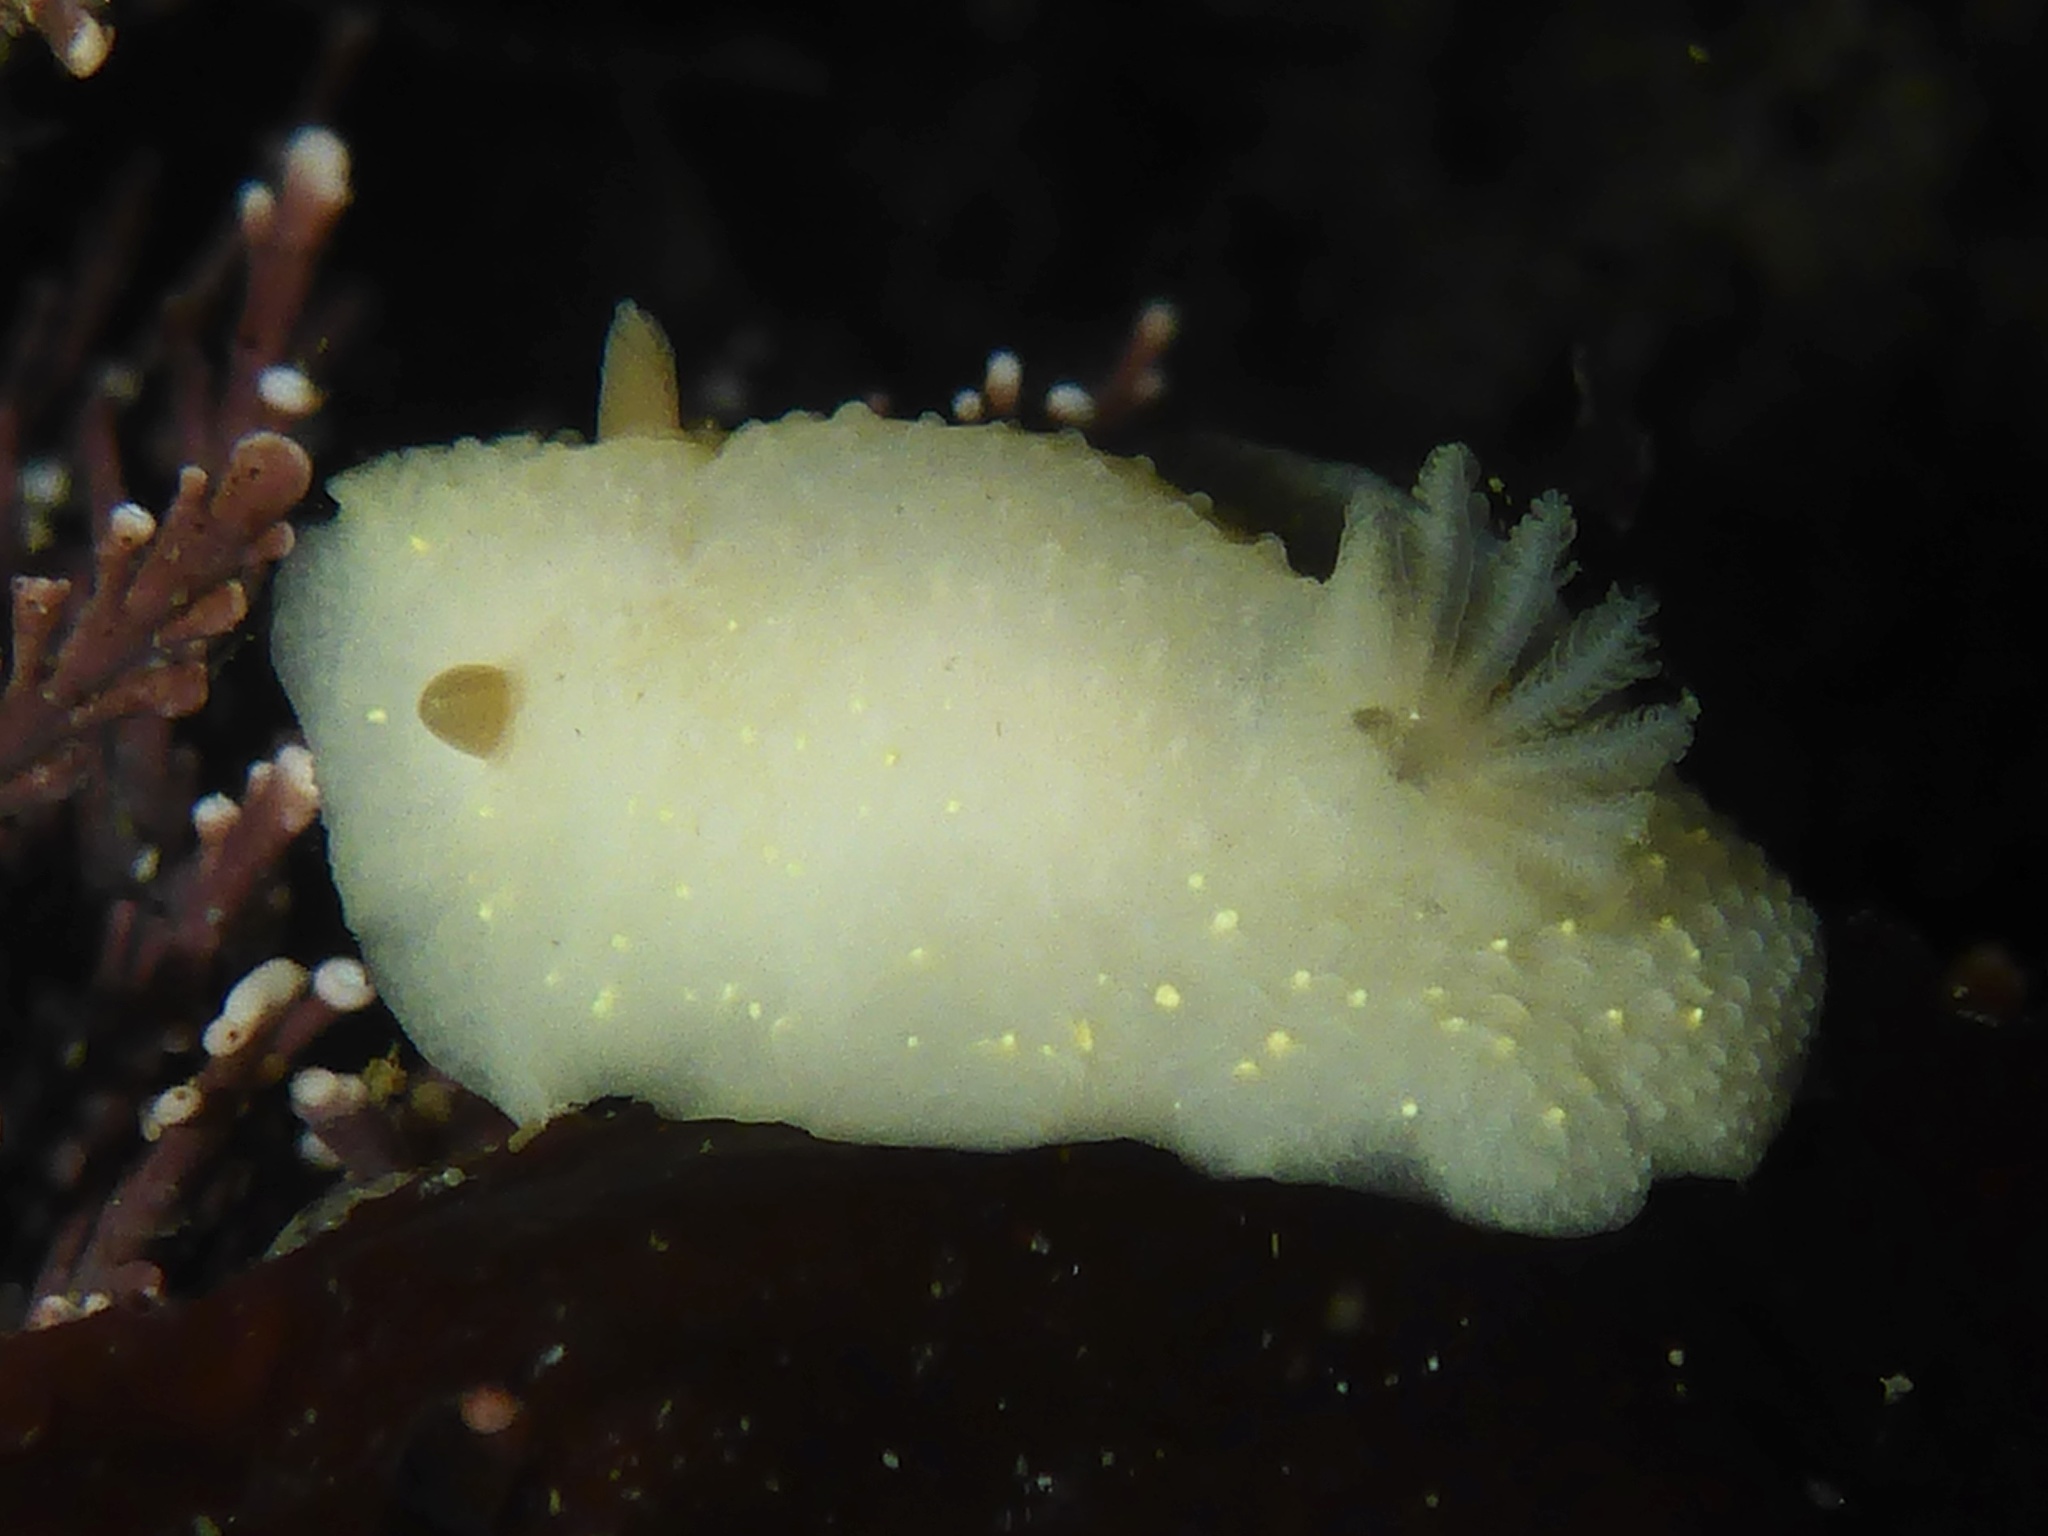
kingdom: Animalia
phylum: Mollusca
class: Gastropoda
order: Nudibranchia
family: Cadlinidae
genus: Cadlina
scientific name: Cadlina modesta
